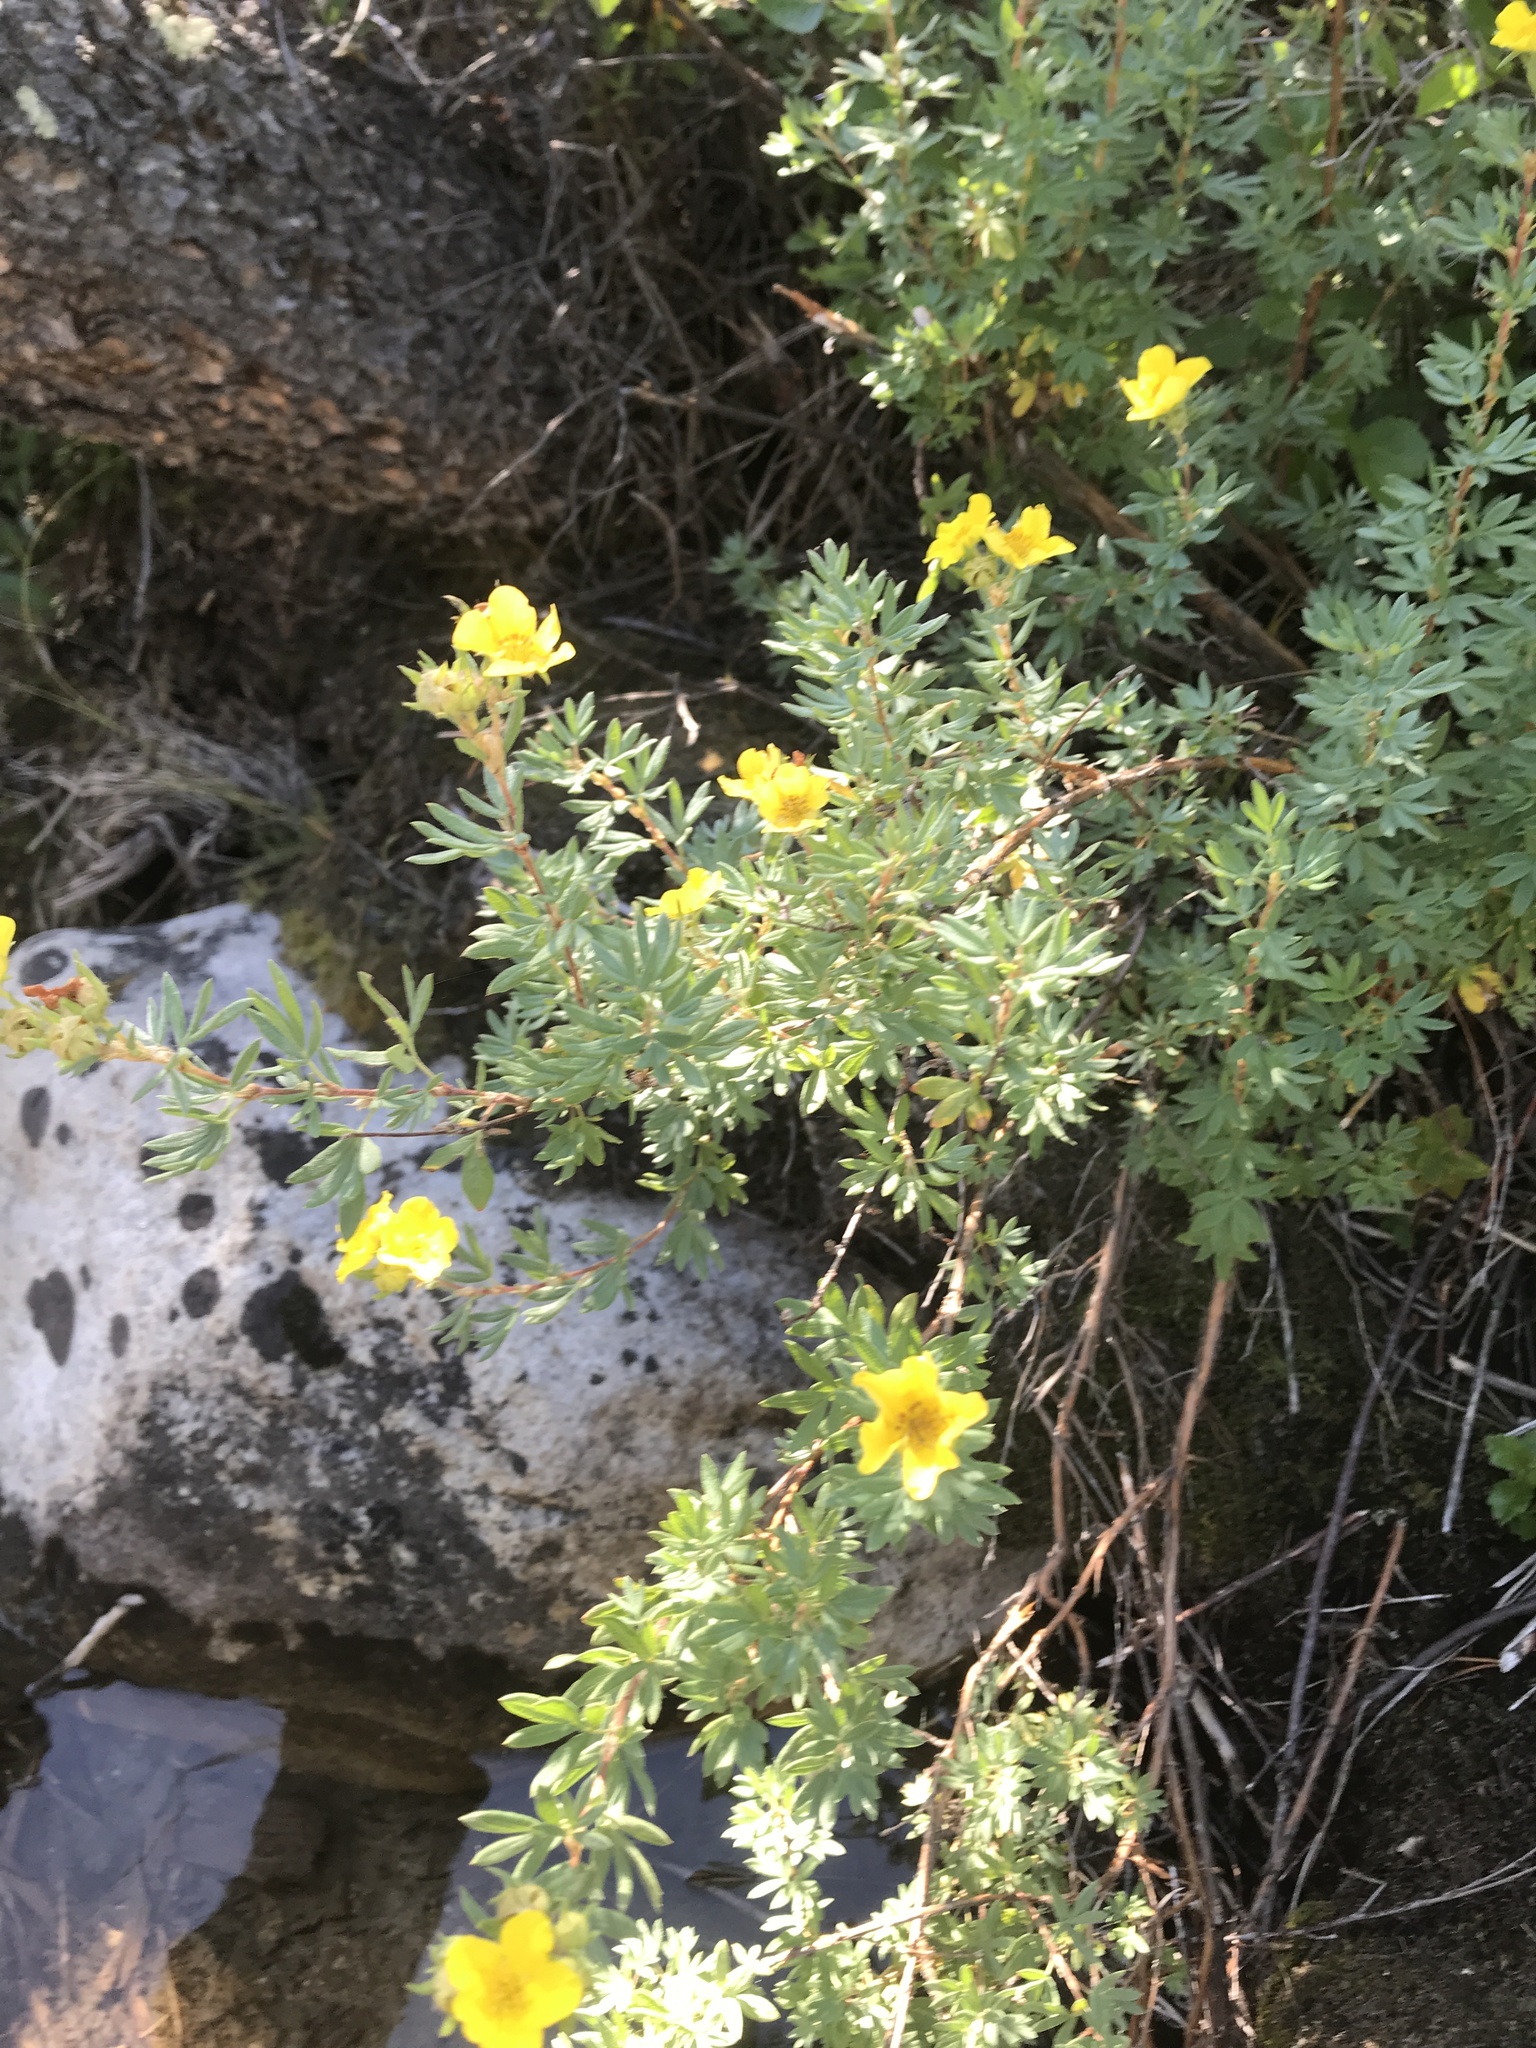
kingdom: Plantae
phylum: Tracheophyta
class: Magnoliopsida
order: Rosales
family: Rosaceae
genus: Dasiphora
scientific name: Dasiphora fruticosa
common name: Shrubby cinquefoil
